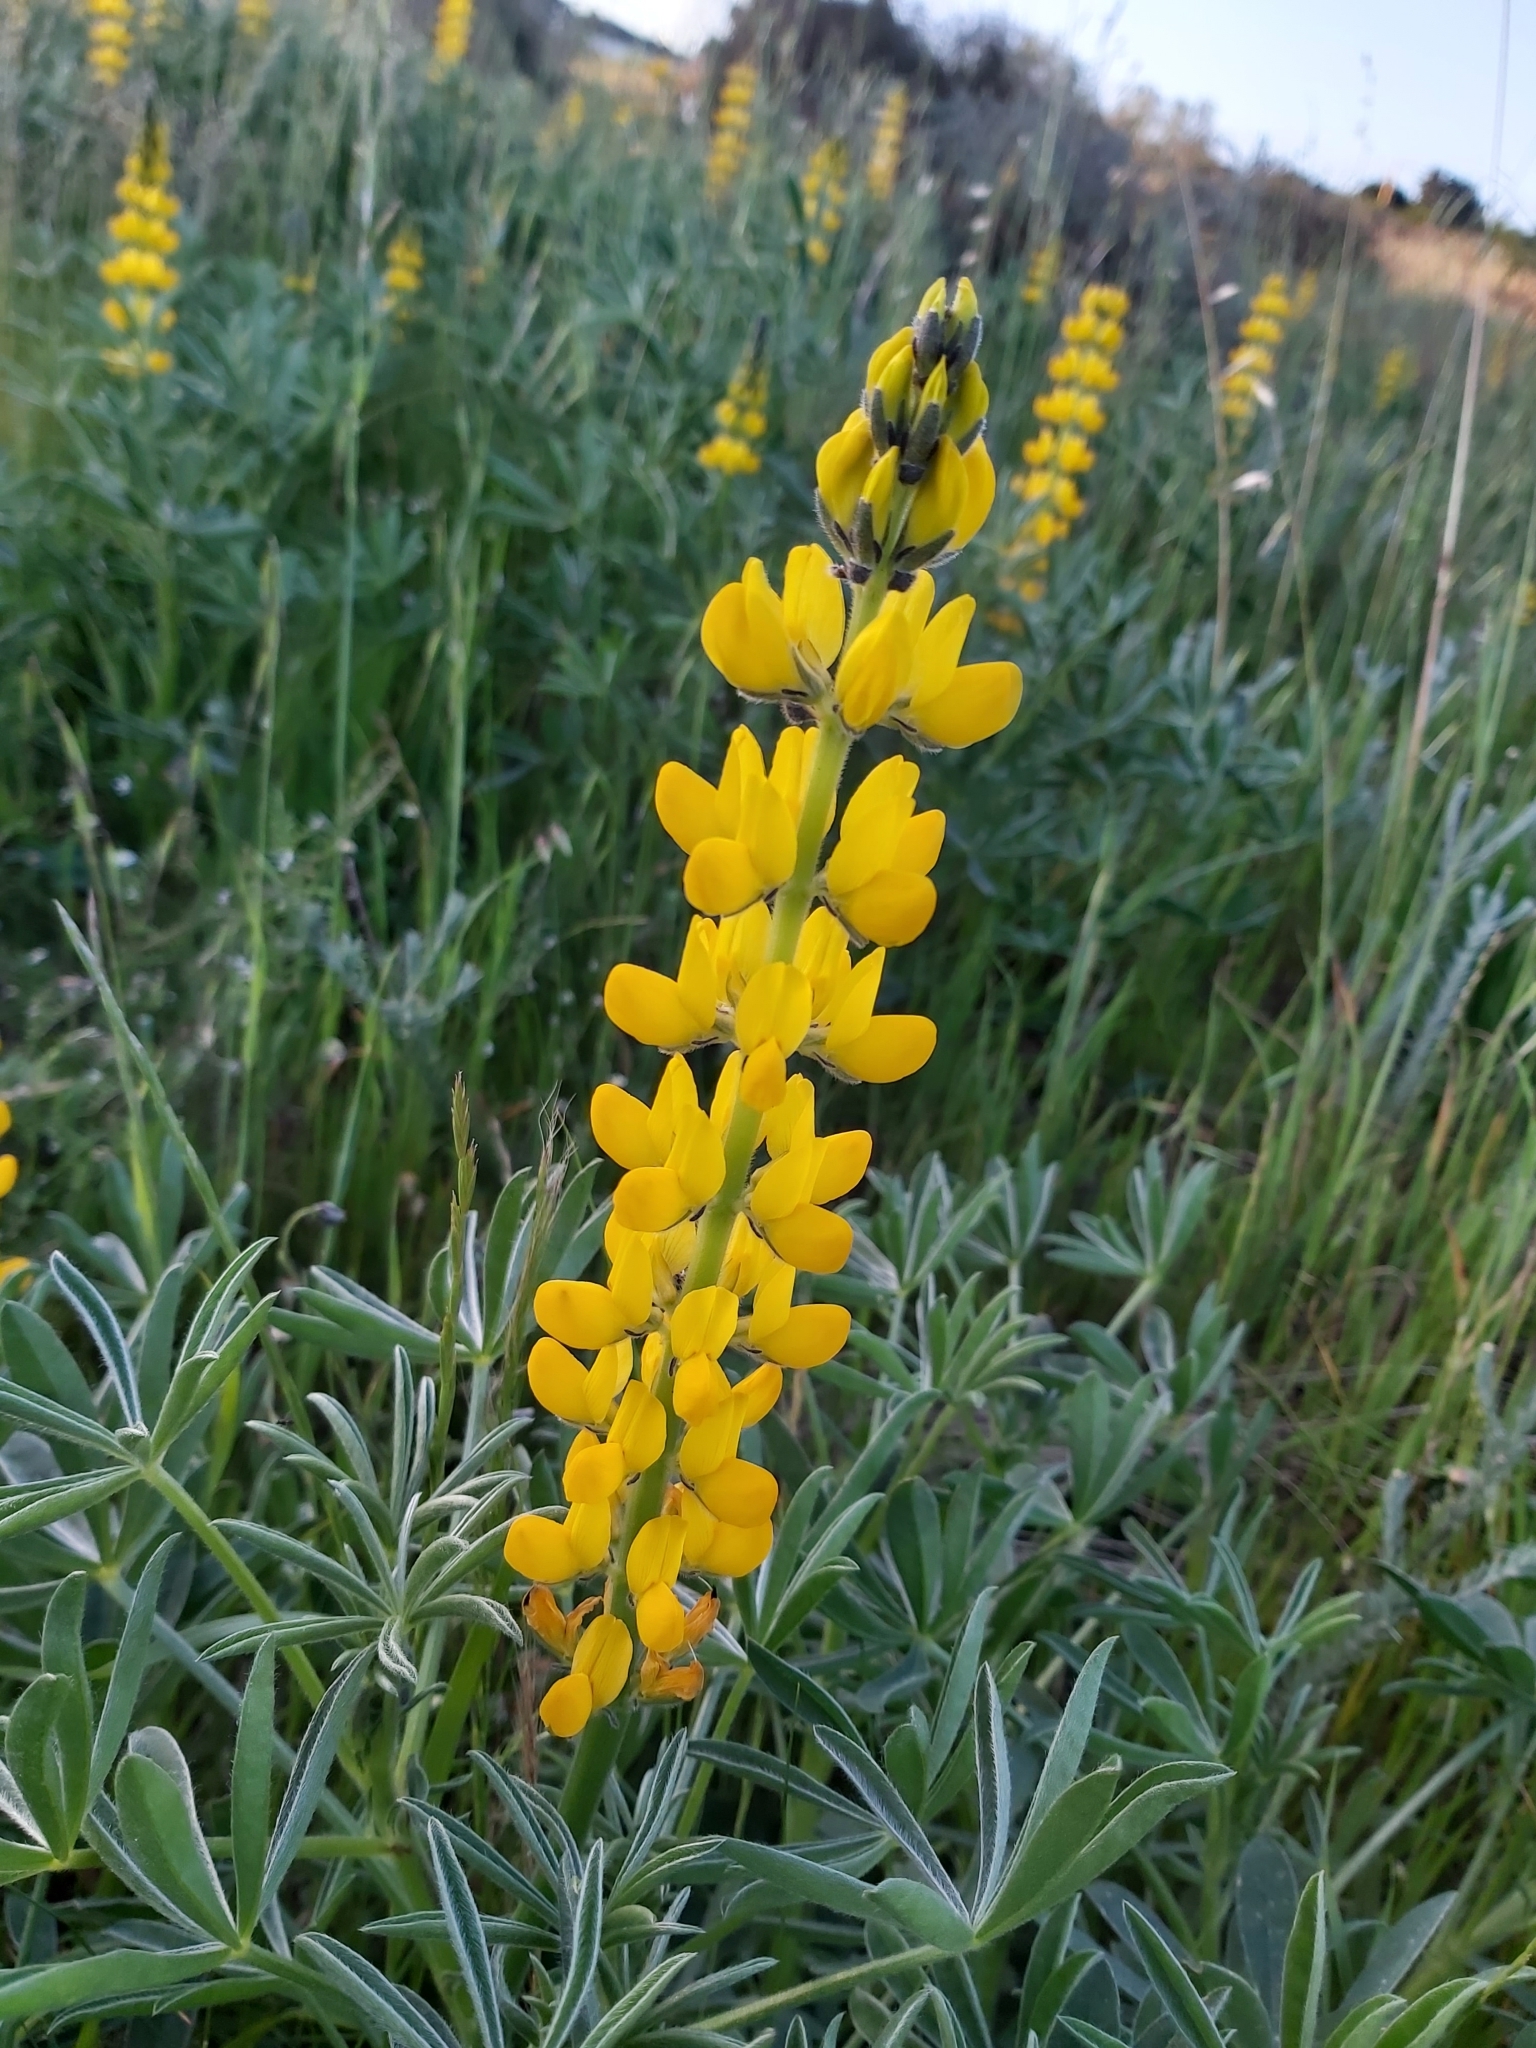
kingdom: Plantae
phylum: Tracheophyta
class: Magnoliopsida
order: Fabales
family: Fabaceae
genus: Lupinus
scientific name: Lupinus luteus
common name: European yellow lupine
